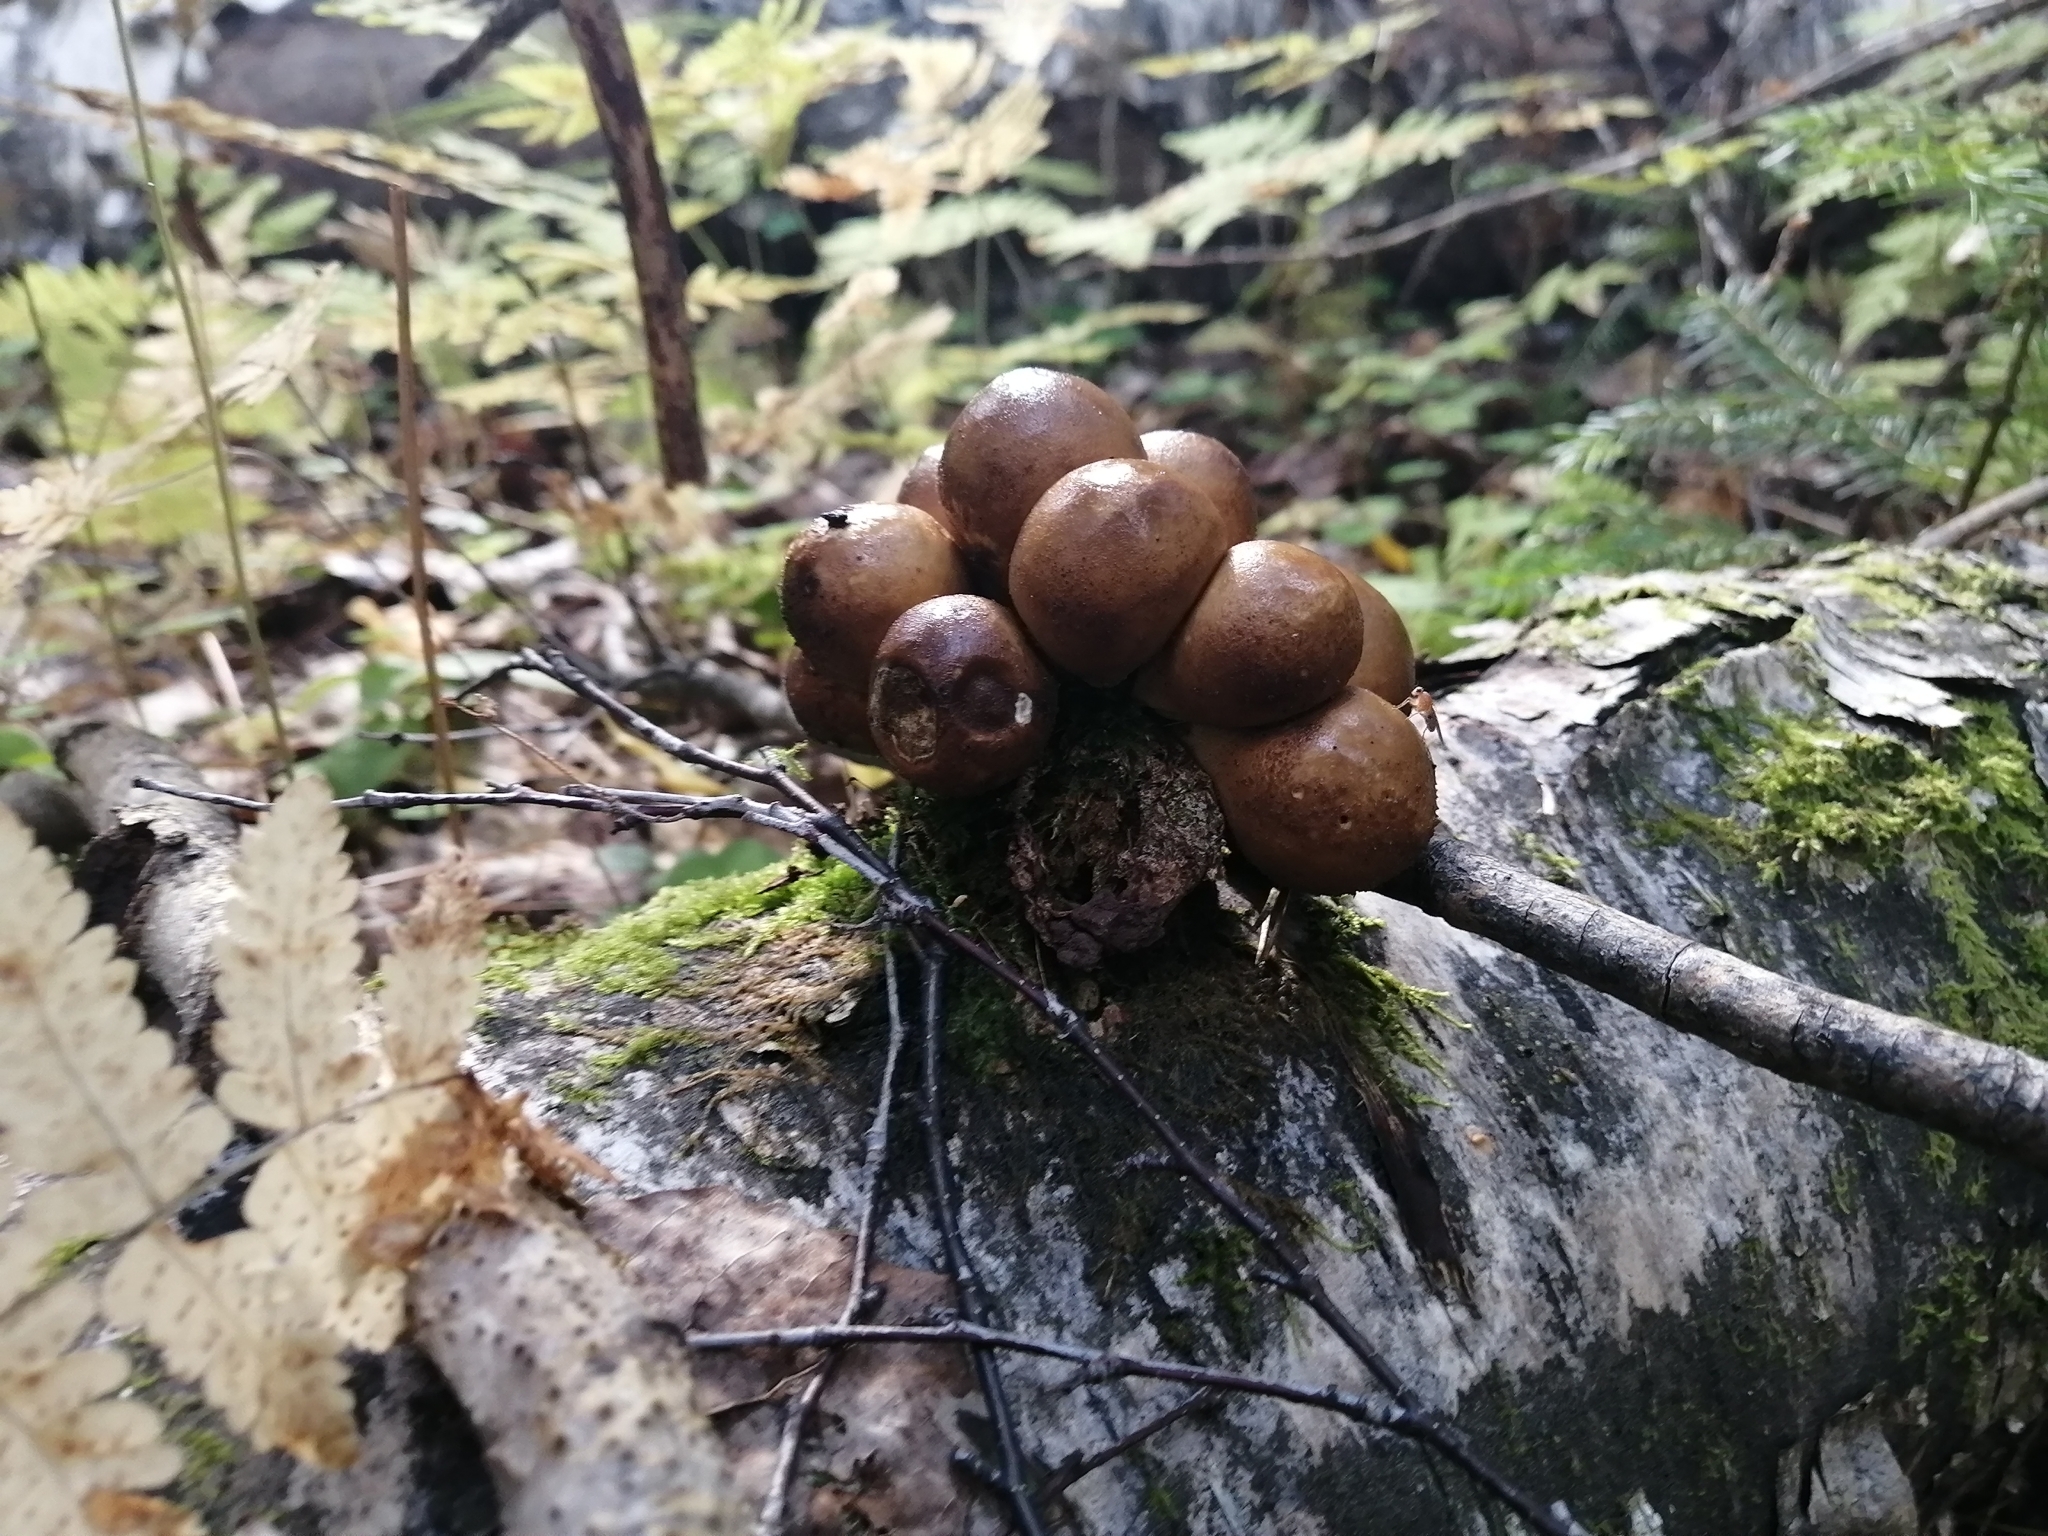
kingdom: Fungi
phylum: Basidiomycota
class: Agaricomycetes
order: Agaricales
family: Lycoperdaceae
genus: Apioperdon
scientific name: Apioperdon pyriforme
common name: Pear-shaped puffball
